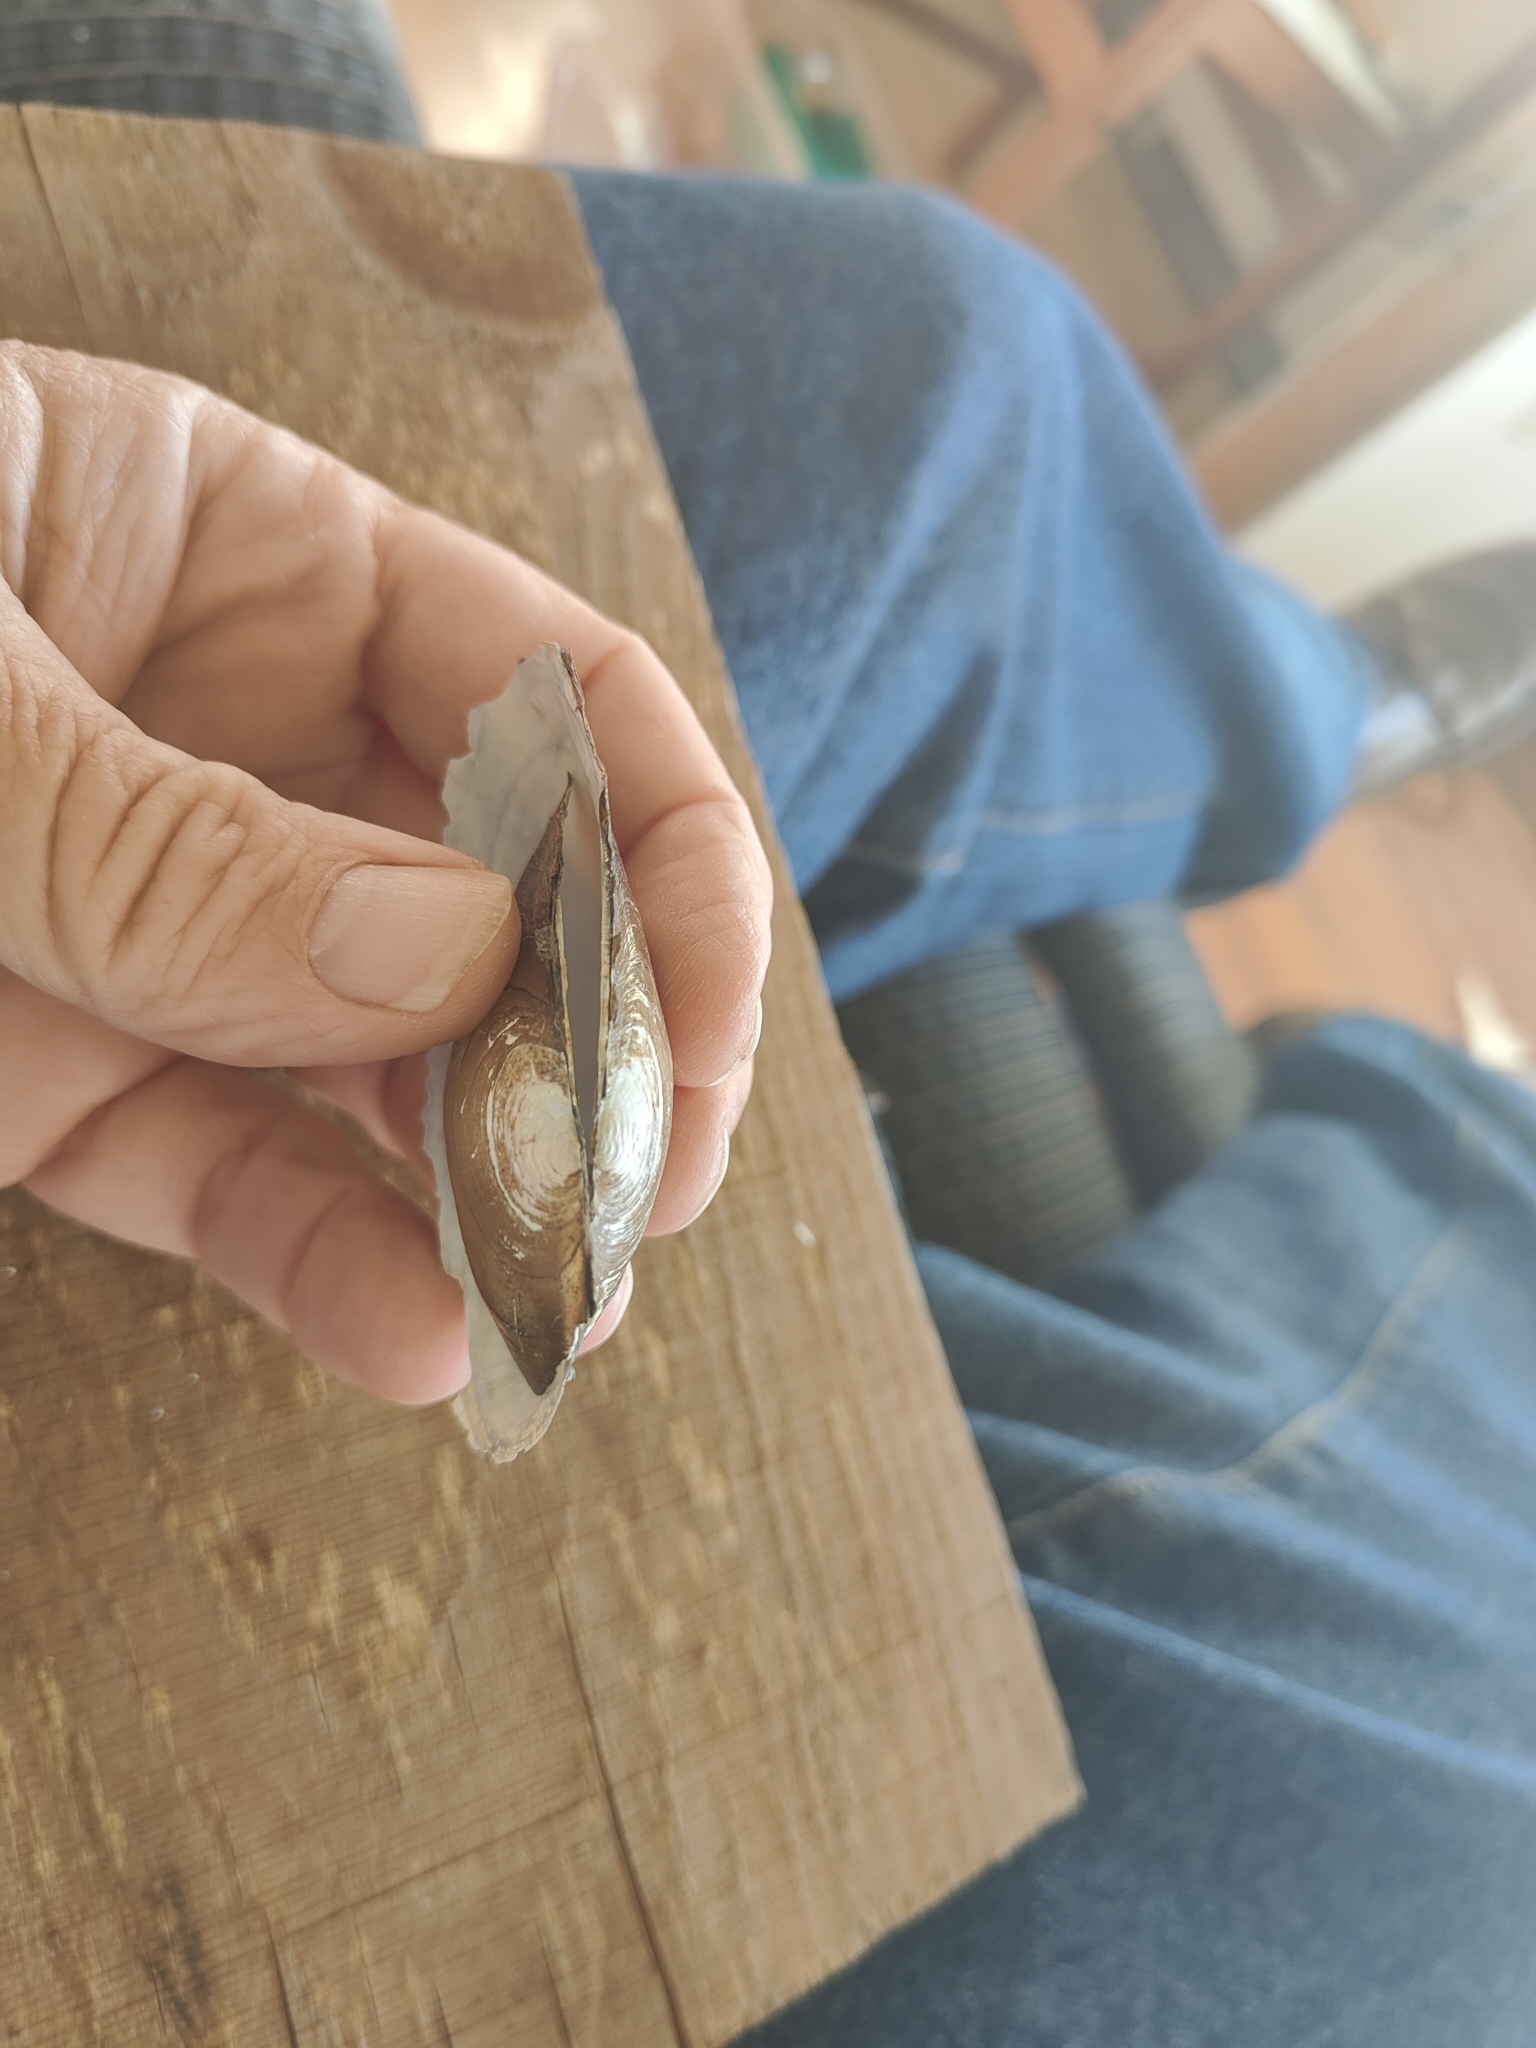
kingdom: Animalia
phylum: Mollusca
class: Bivalvia
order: Unionida
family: Unionidae
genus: Utterbackia
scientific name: Utterbackia imbecillis
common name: Paper pondshell
